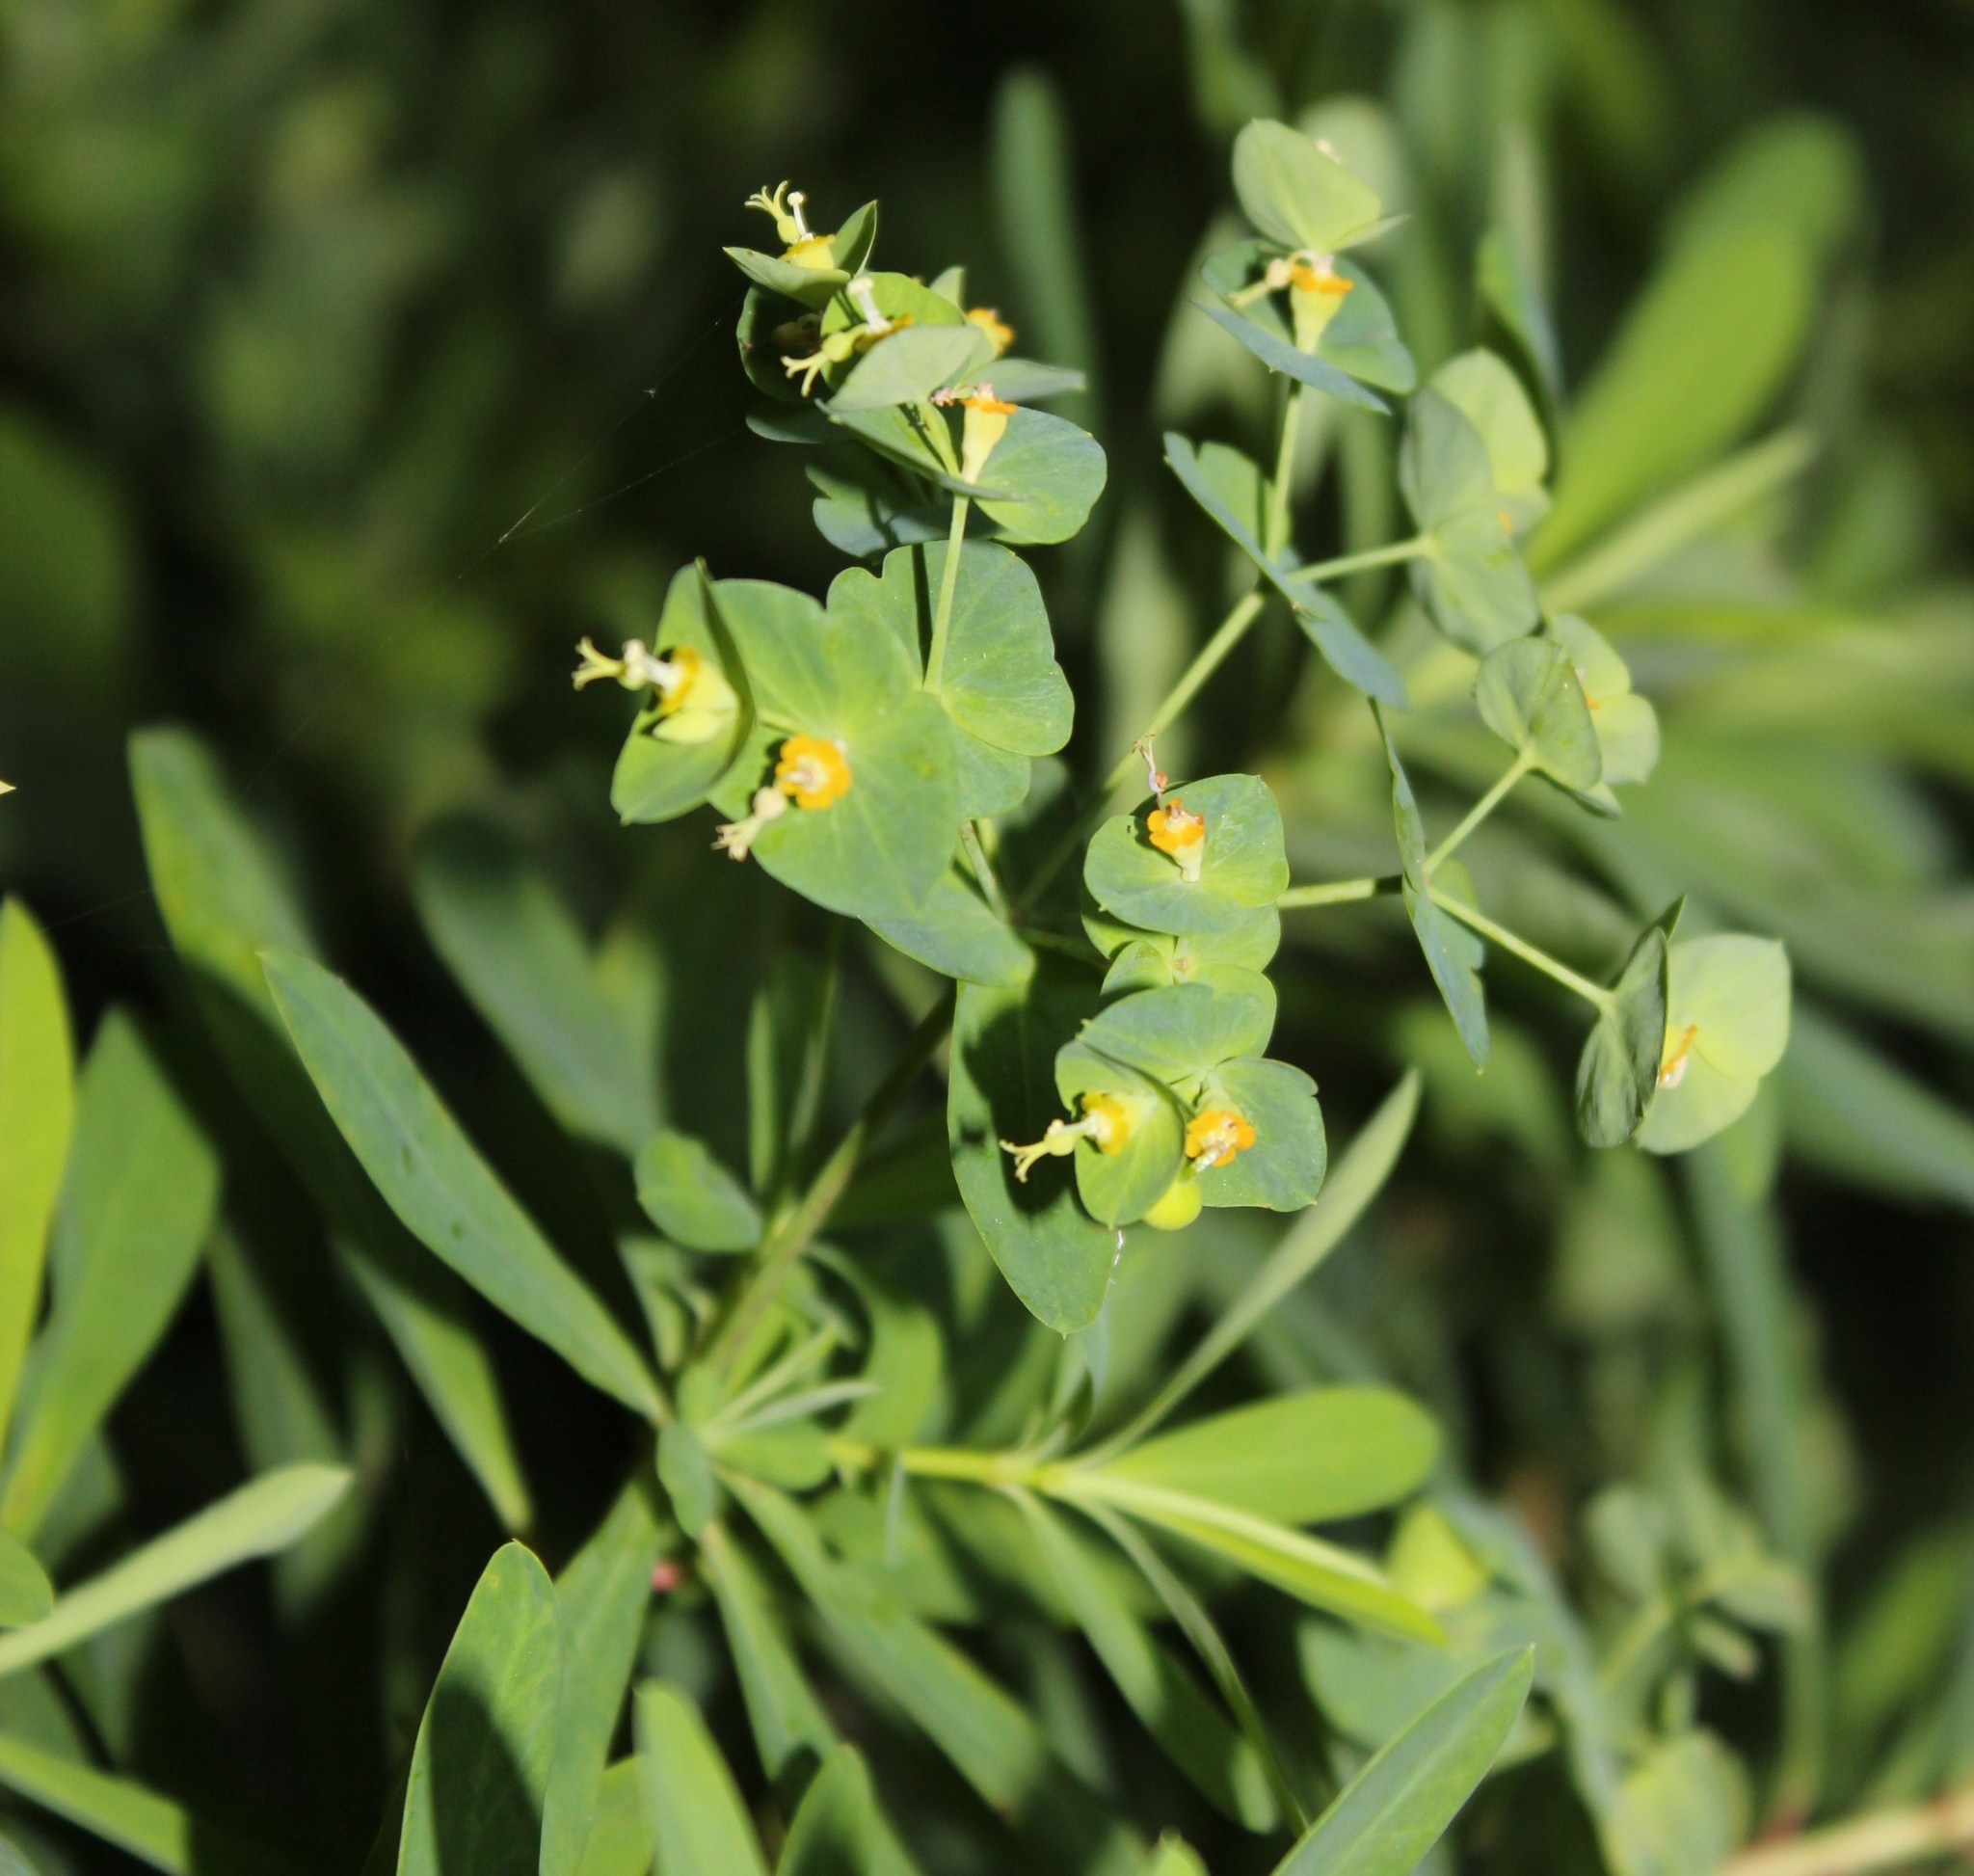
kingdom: Plantae
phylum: Tracheophyta
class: Magnoliopsida
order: Malpighiales
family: Euphorbiaceae
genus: Euphorbia
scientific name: Euphorbia kraussiana
